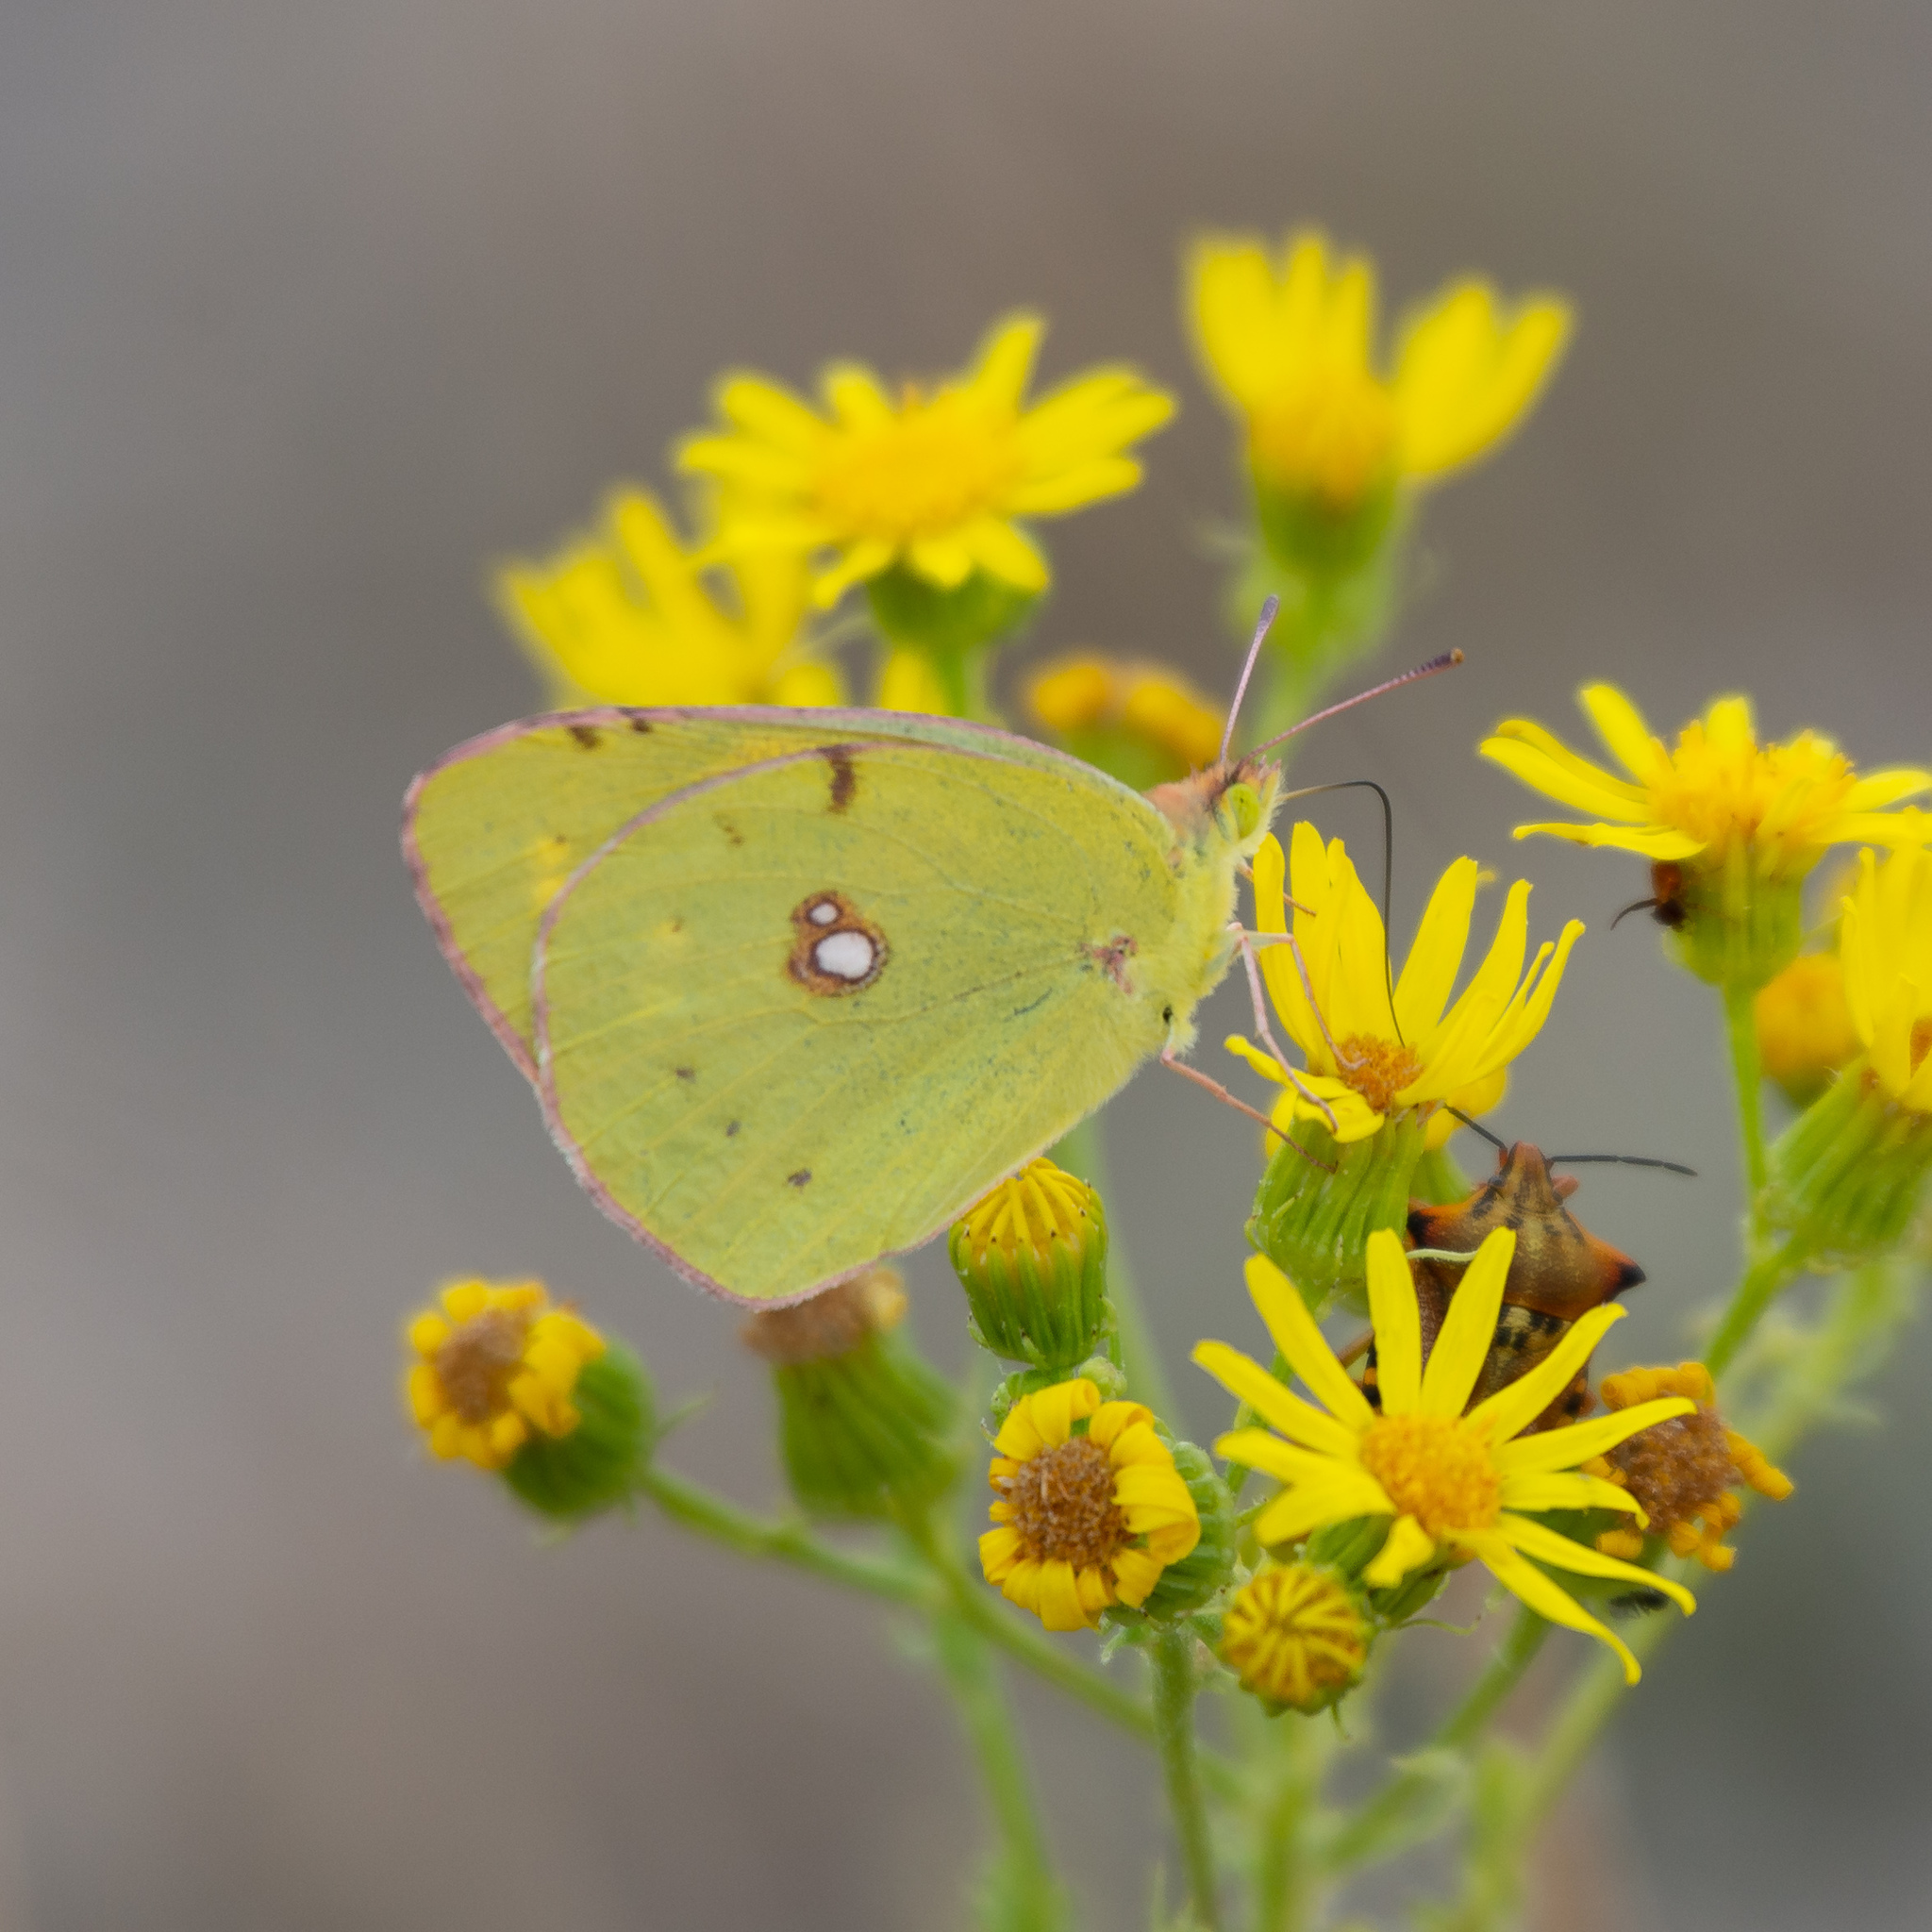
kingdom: Animalia
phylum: Arthropoda
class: Insecta
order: Lepidoptera
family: Pieridae
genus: Colias
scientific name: Colias croceus
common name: Clouded yellow
